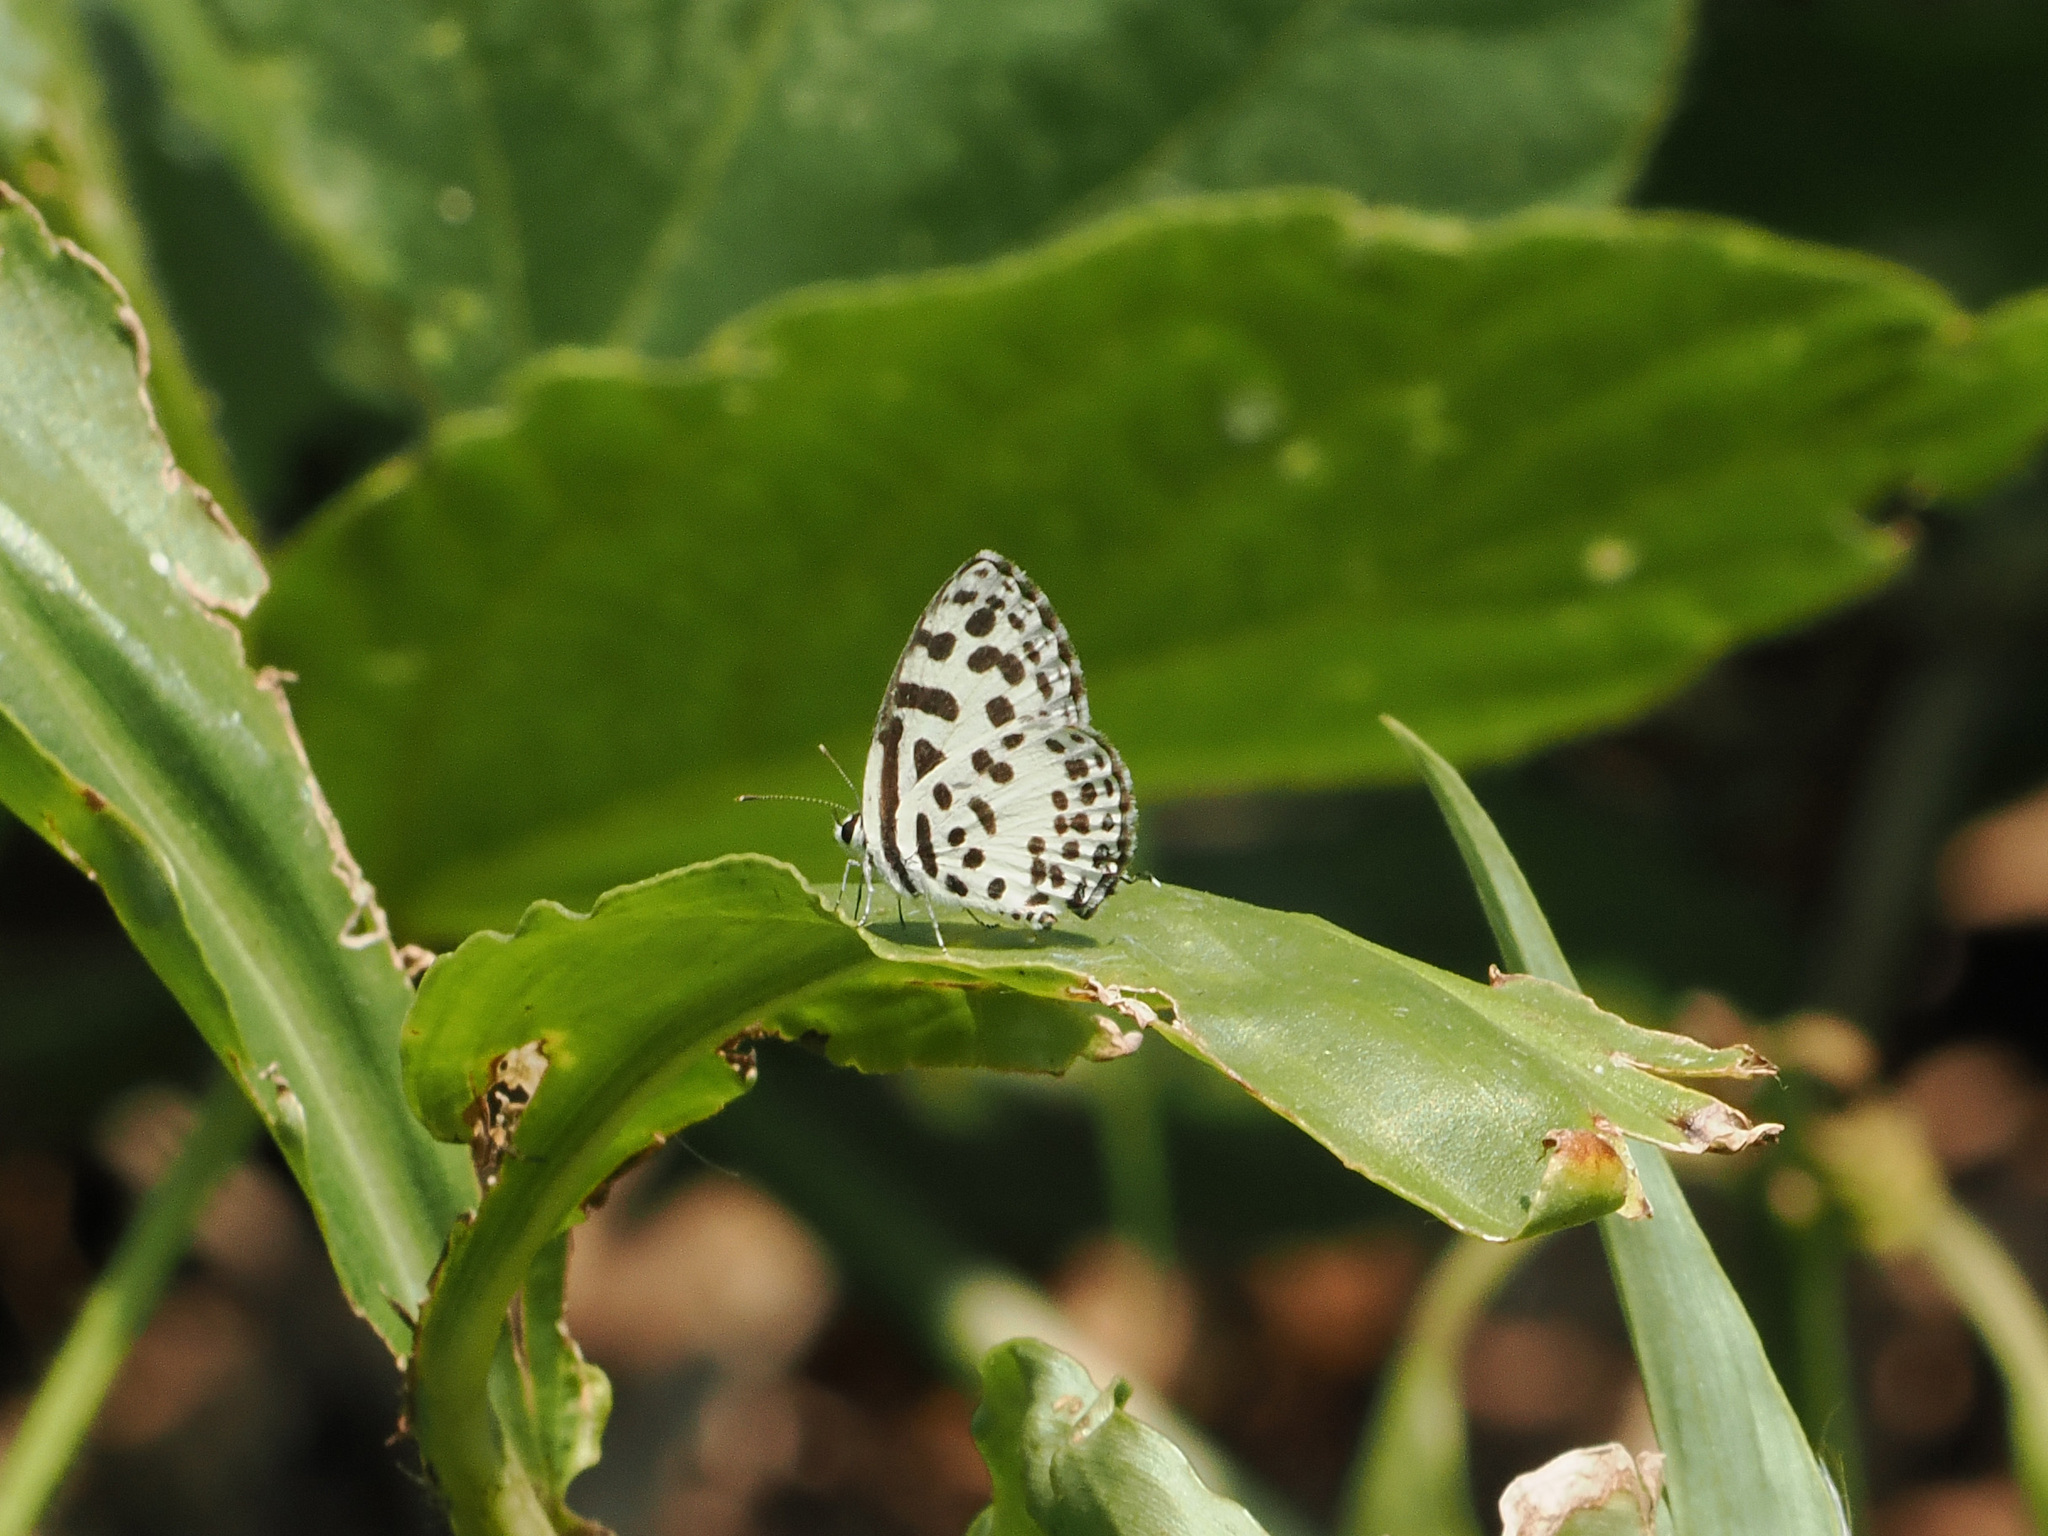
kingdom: Animalia
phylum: Arthropoda
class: Insecta
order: Lepidoptera
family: Lycaenidae
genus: Castalius
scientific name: Castalius rosimon
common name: Common pierrot
